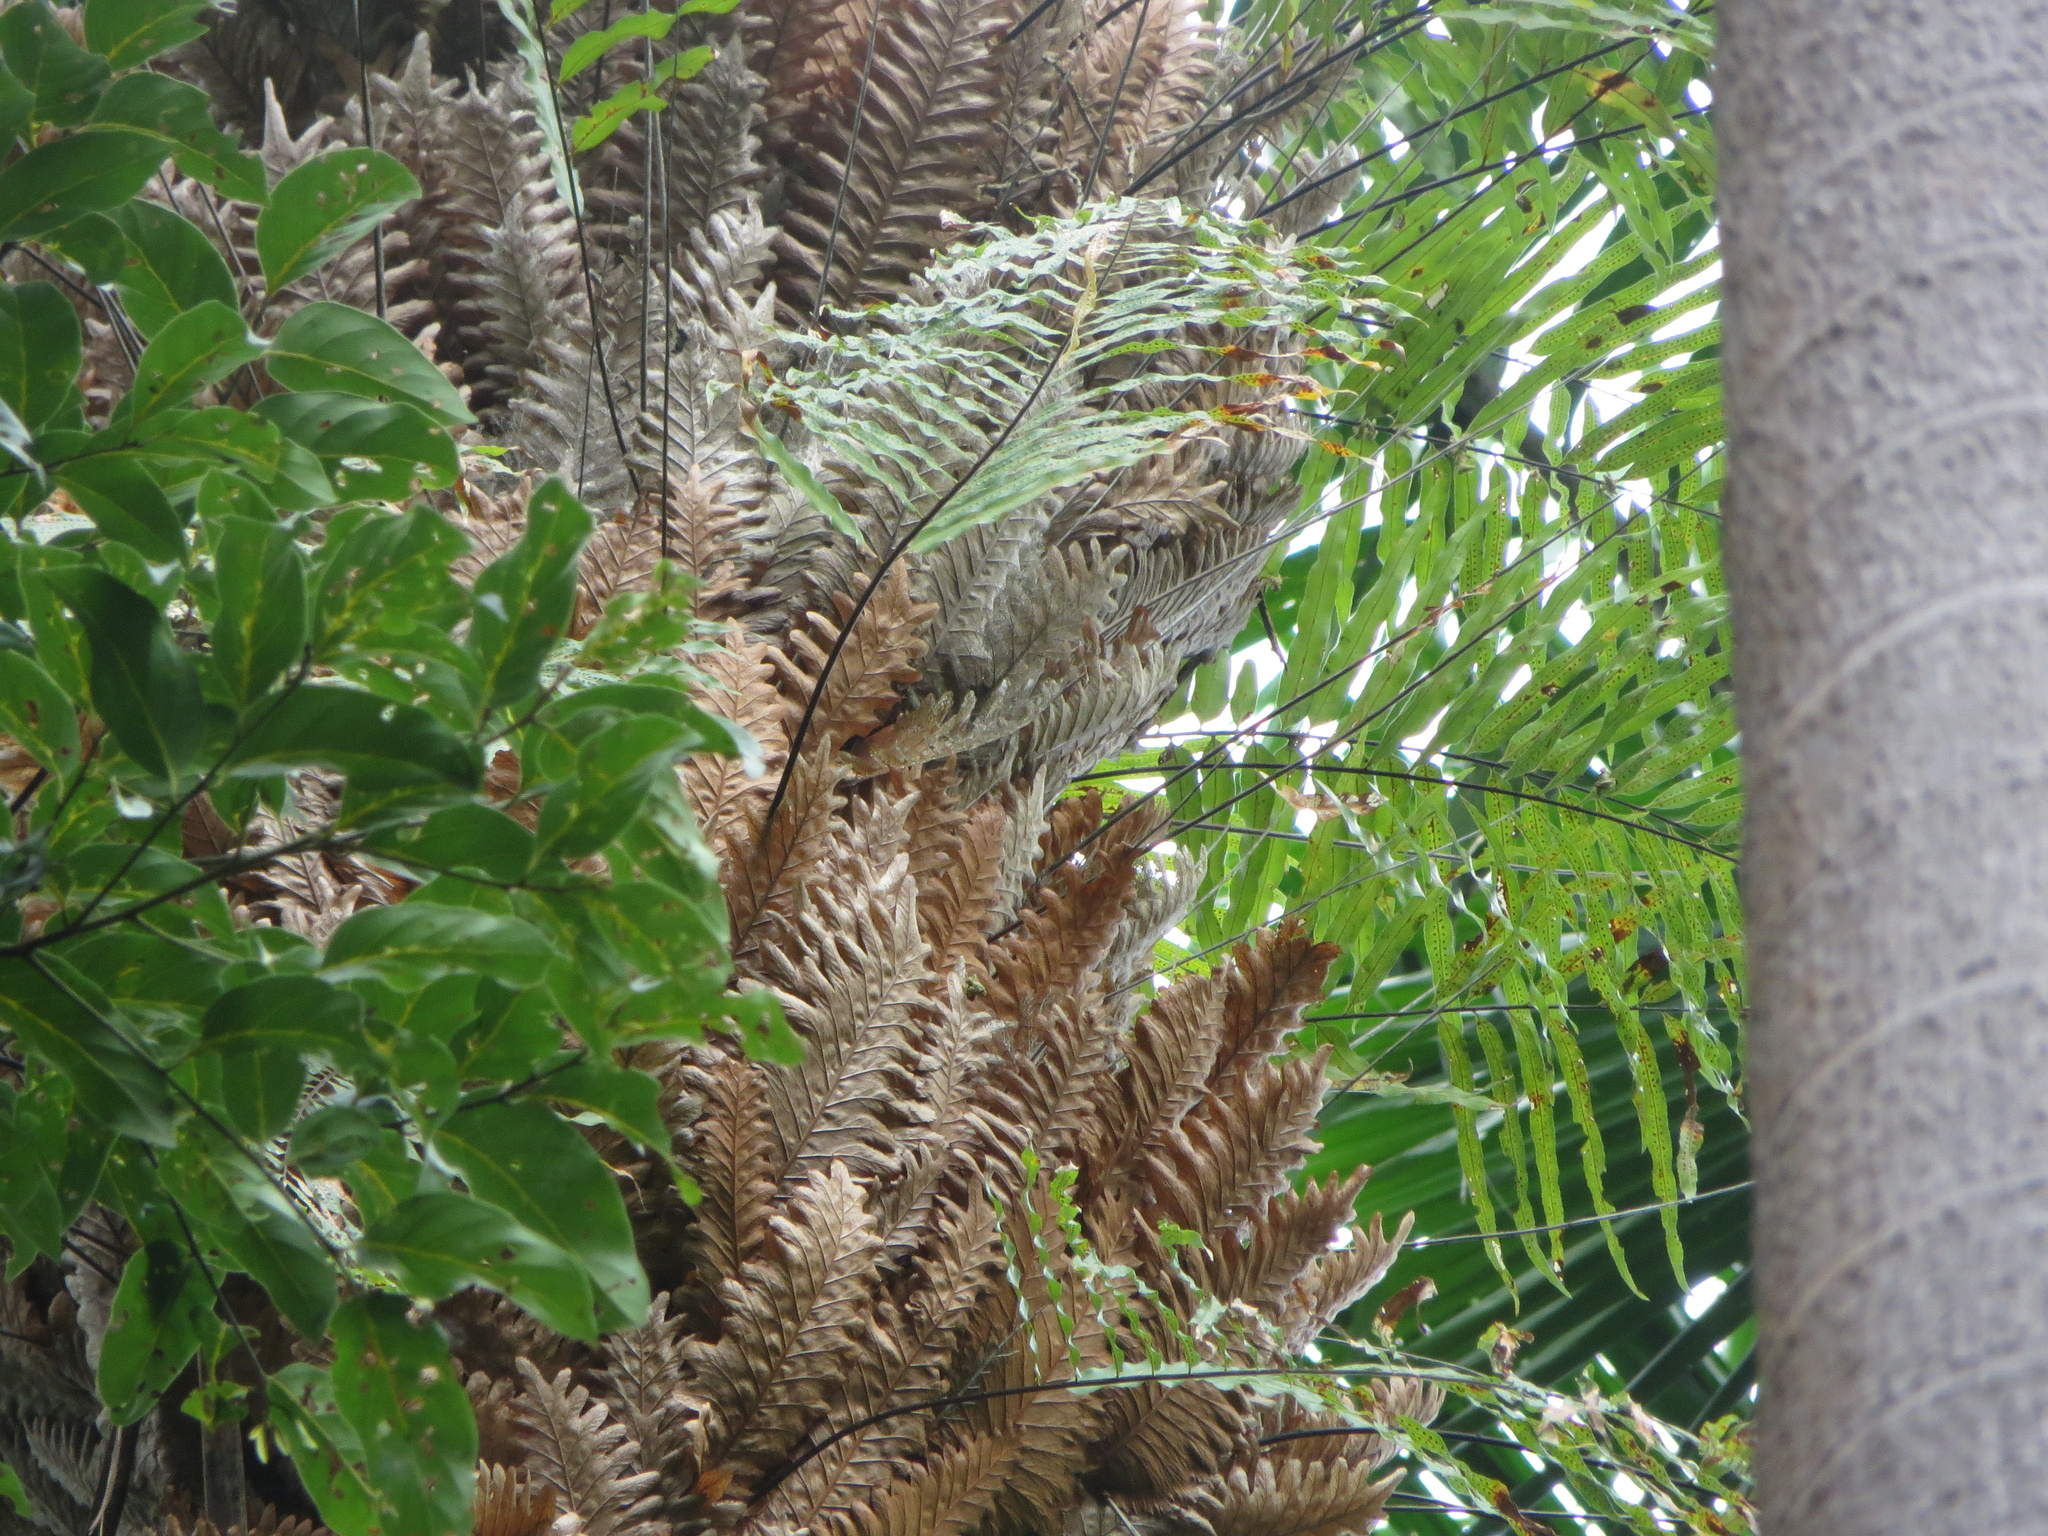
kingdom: Plantae
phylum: Tracheophyta
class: Polypodiopsida
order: Polypodiales
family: Polypodiaceae
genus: Drynaria
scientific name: Drynaria rigidula
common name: Basket fern
